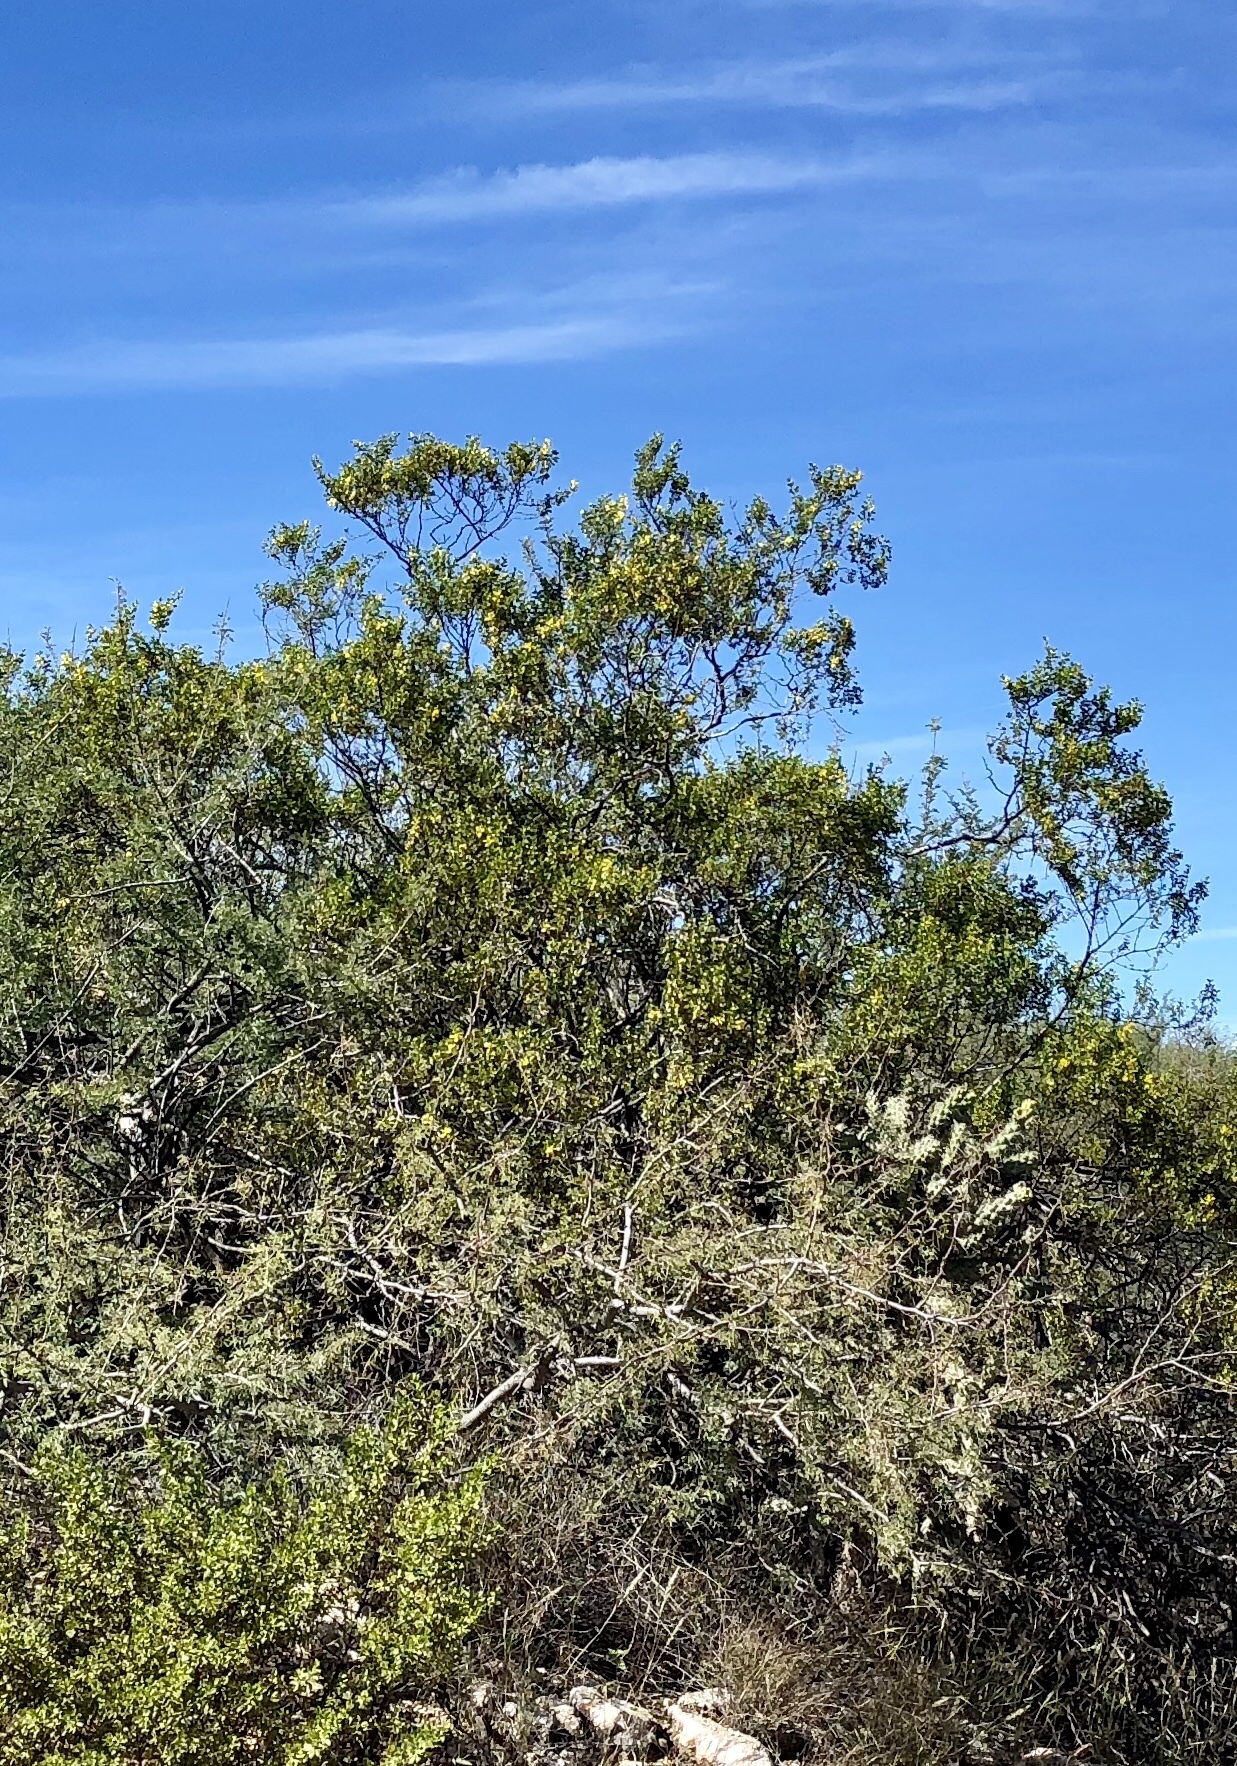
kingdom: Plantae
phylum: Tracheophyta
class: Magnoliopsida
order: Zygophyllales
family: Zygophyllaceae
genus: Larrea
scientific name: Larrea tridentata
